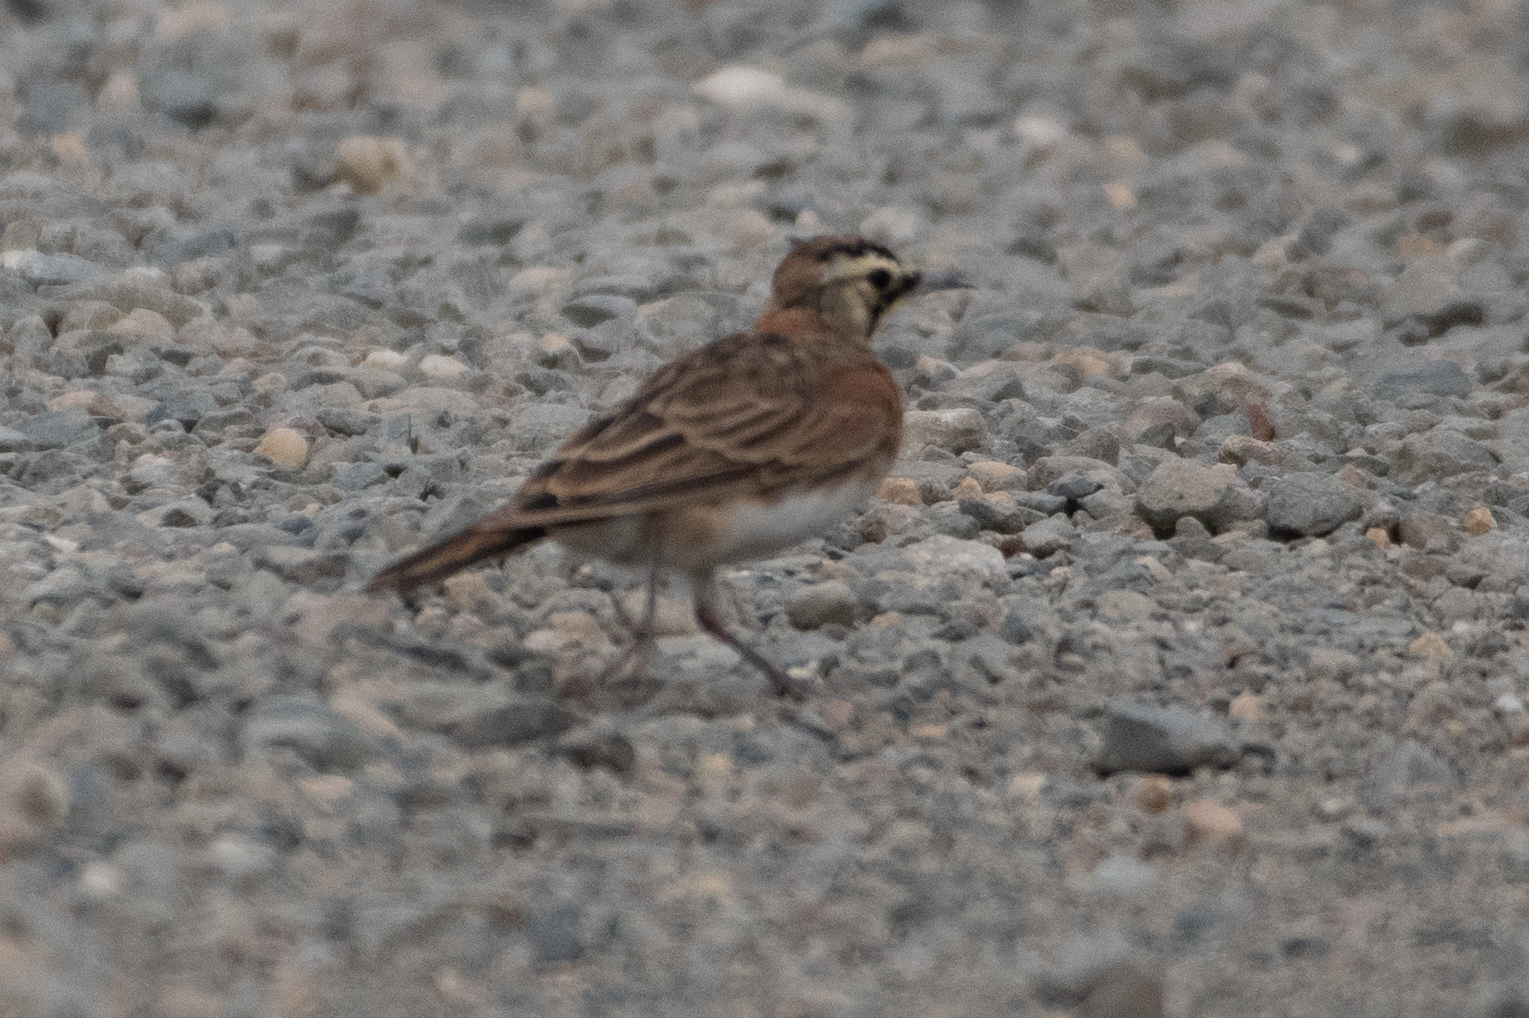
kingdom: Animalia
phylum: Chordata
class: Aves
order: Passeriformes
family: Alaudidae
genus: Eremophila
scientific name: Eremophila alpestris
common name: Horned lark
